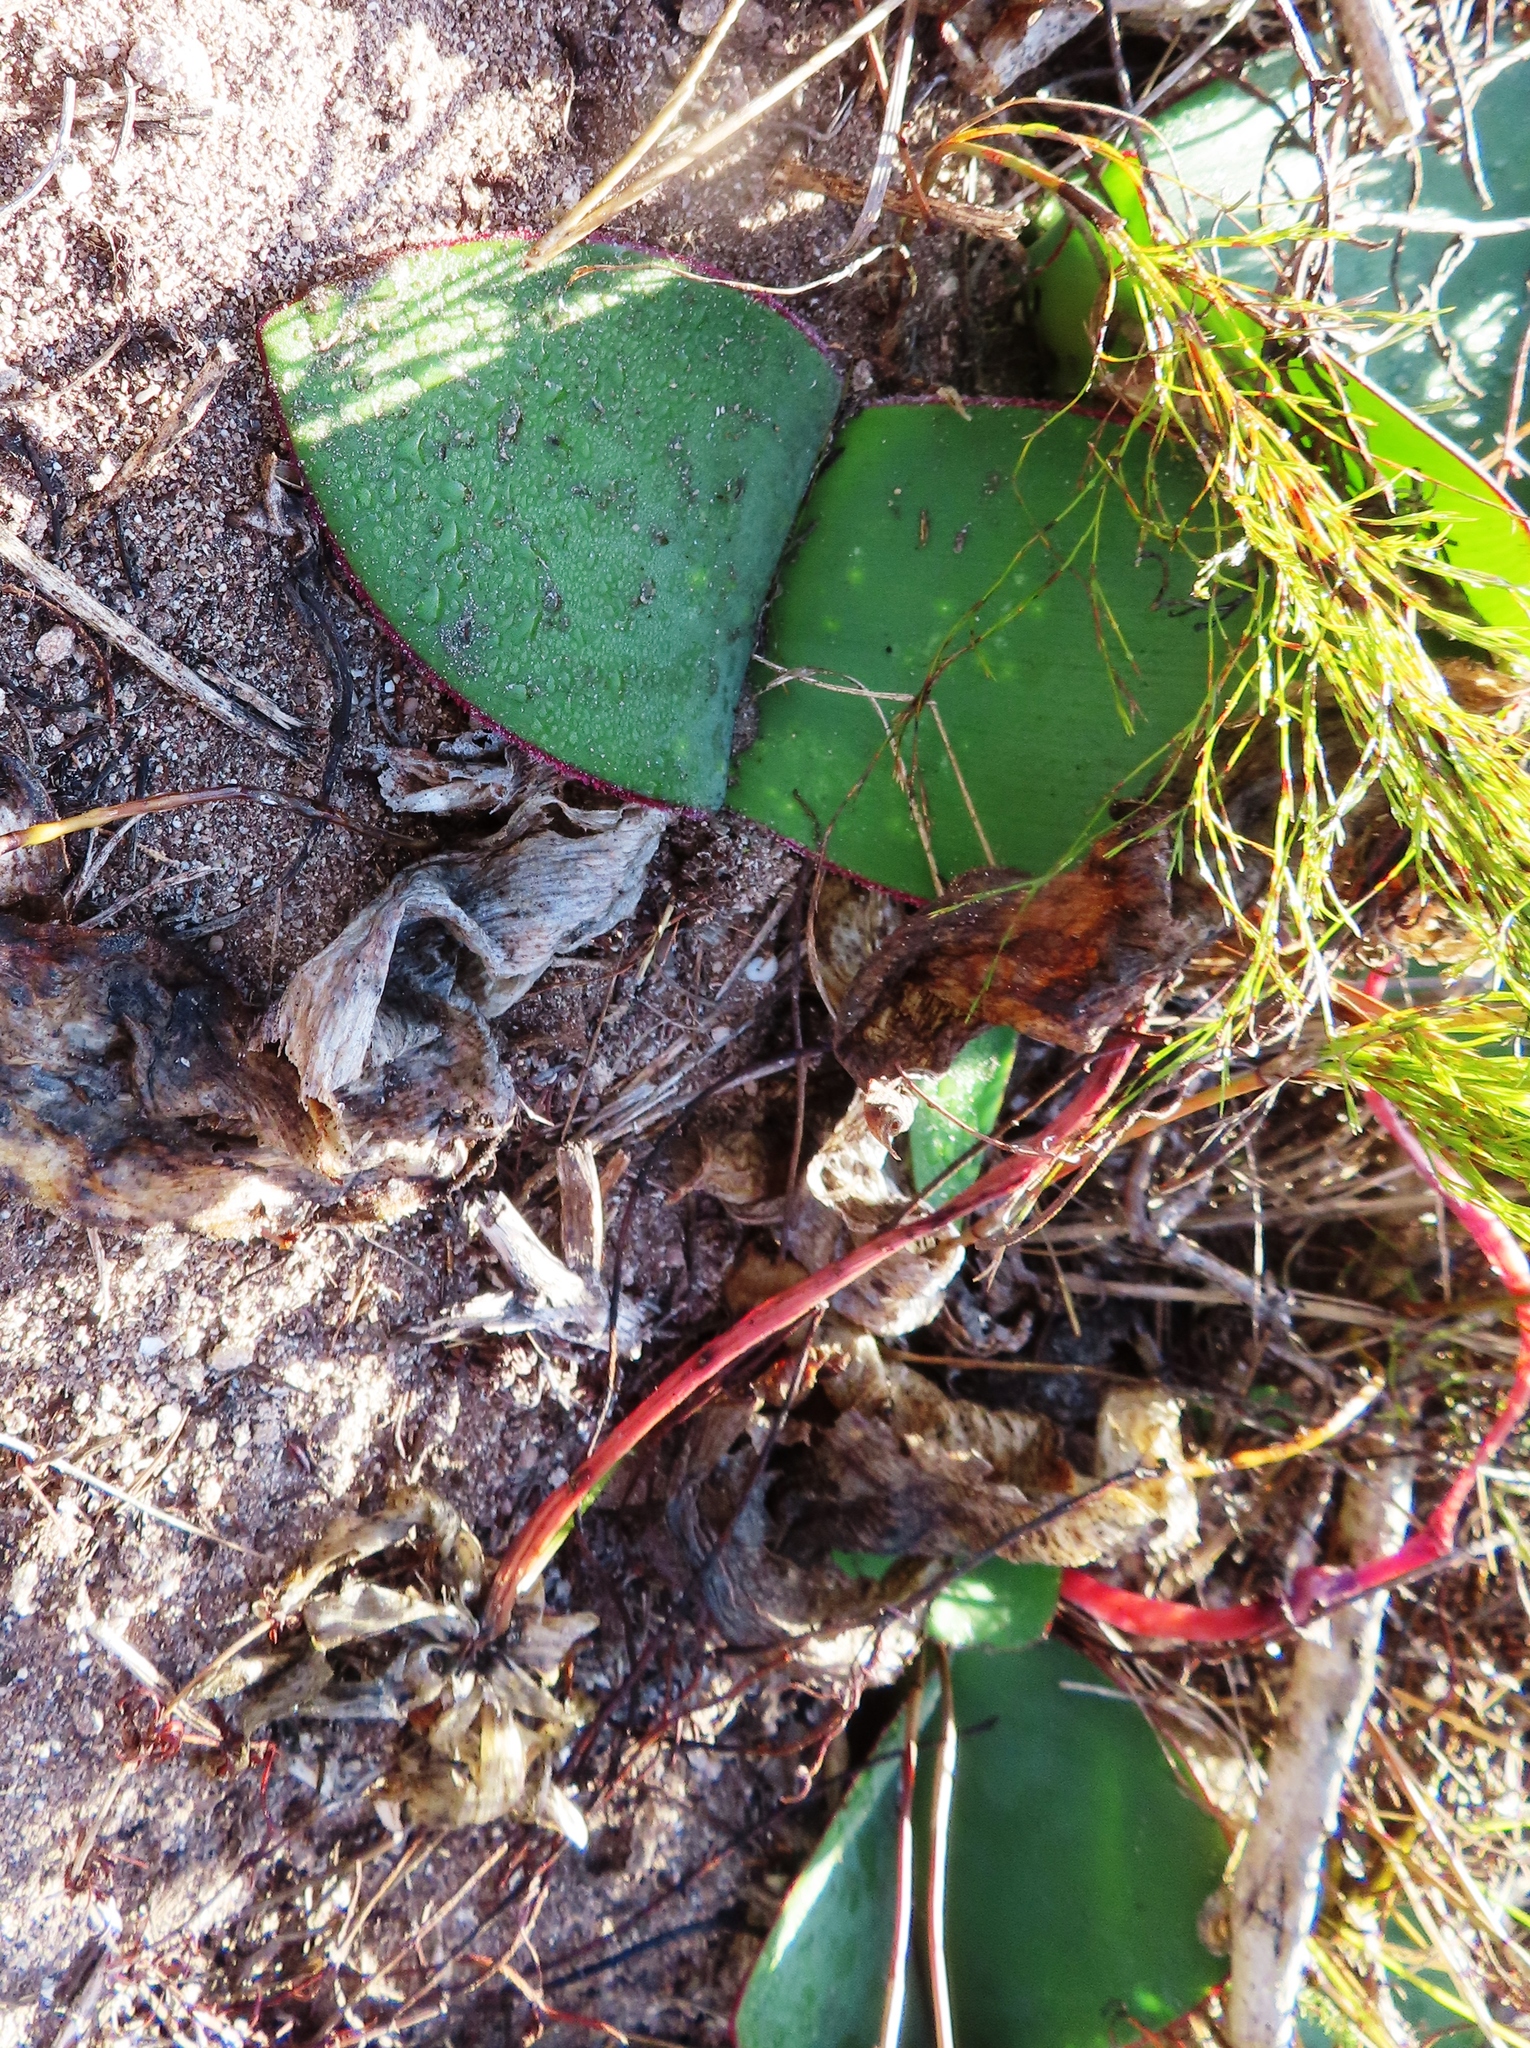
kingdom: Plantae
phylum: Tracheophyta
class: Liliopsida
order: Asparagales
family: Amaryllidaceae
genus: Haemanthus
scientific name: Haemanthus sanguineus
